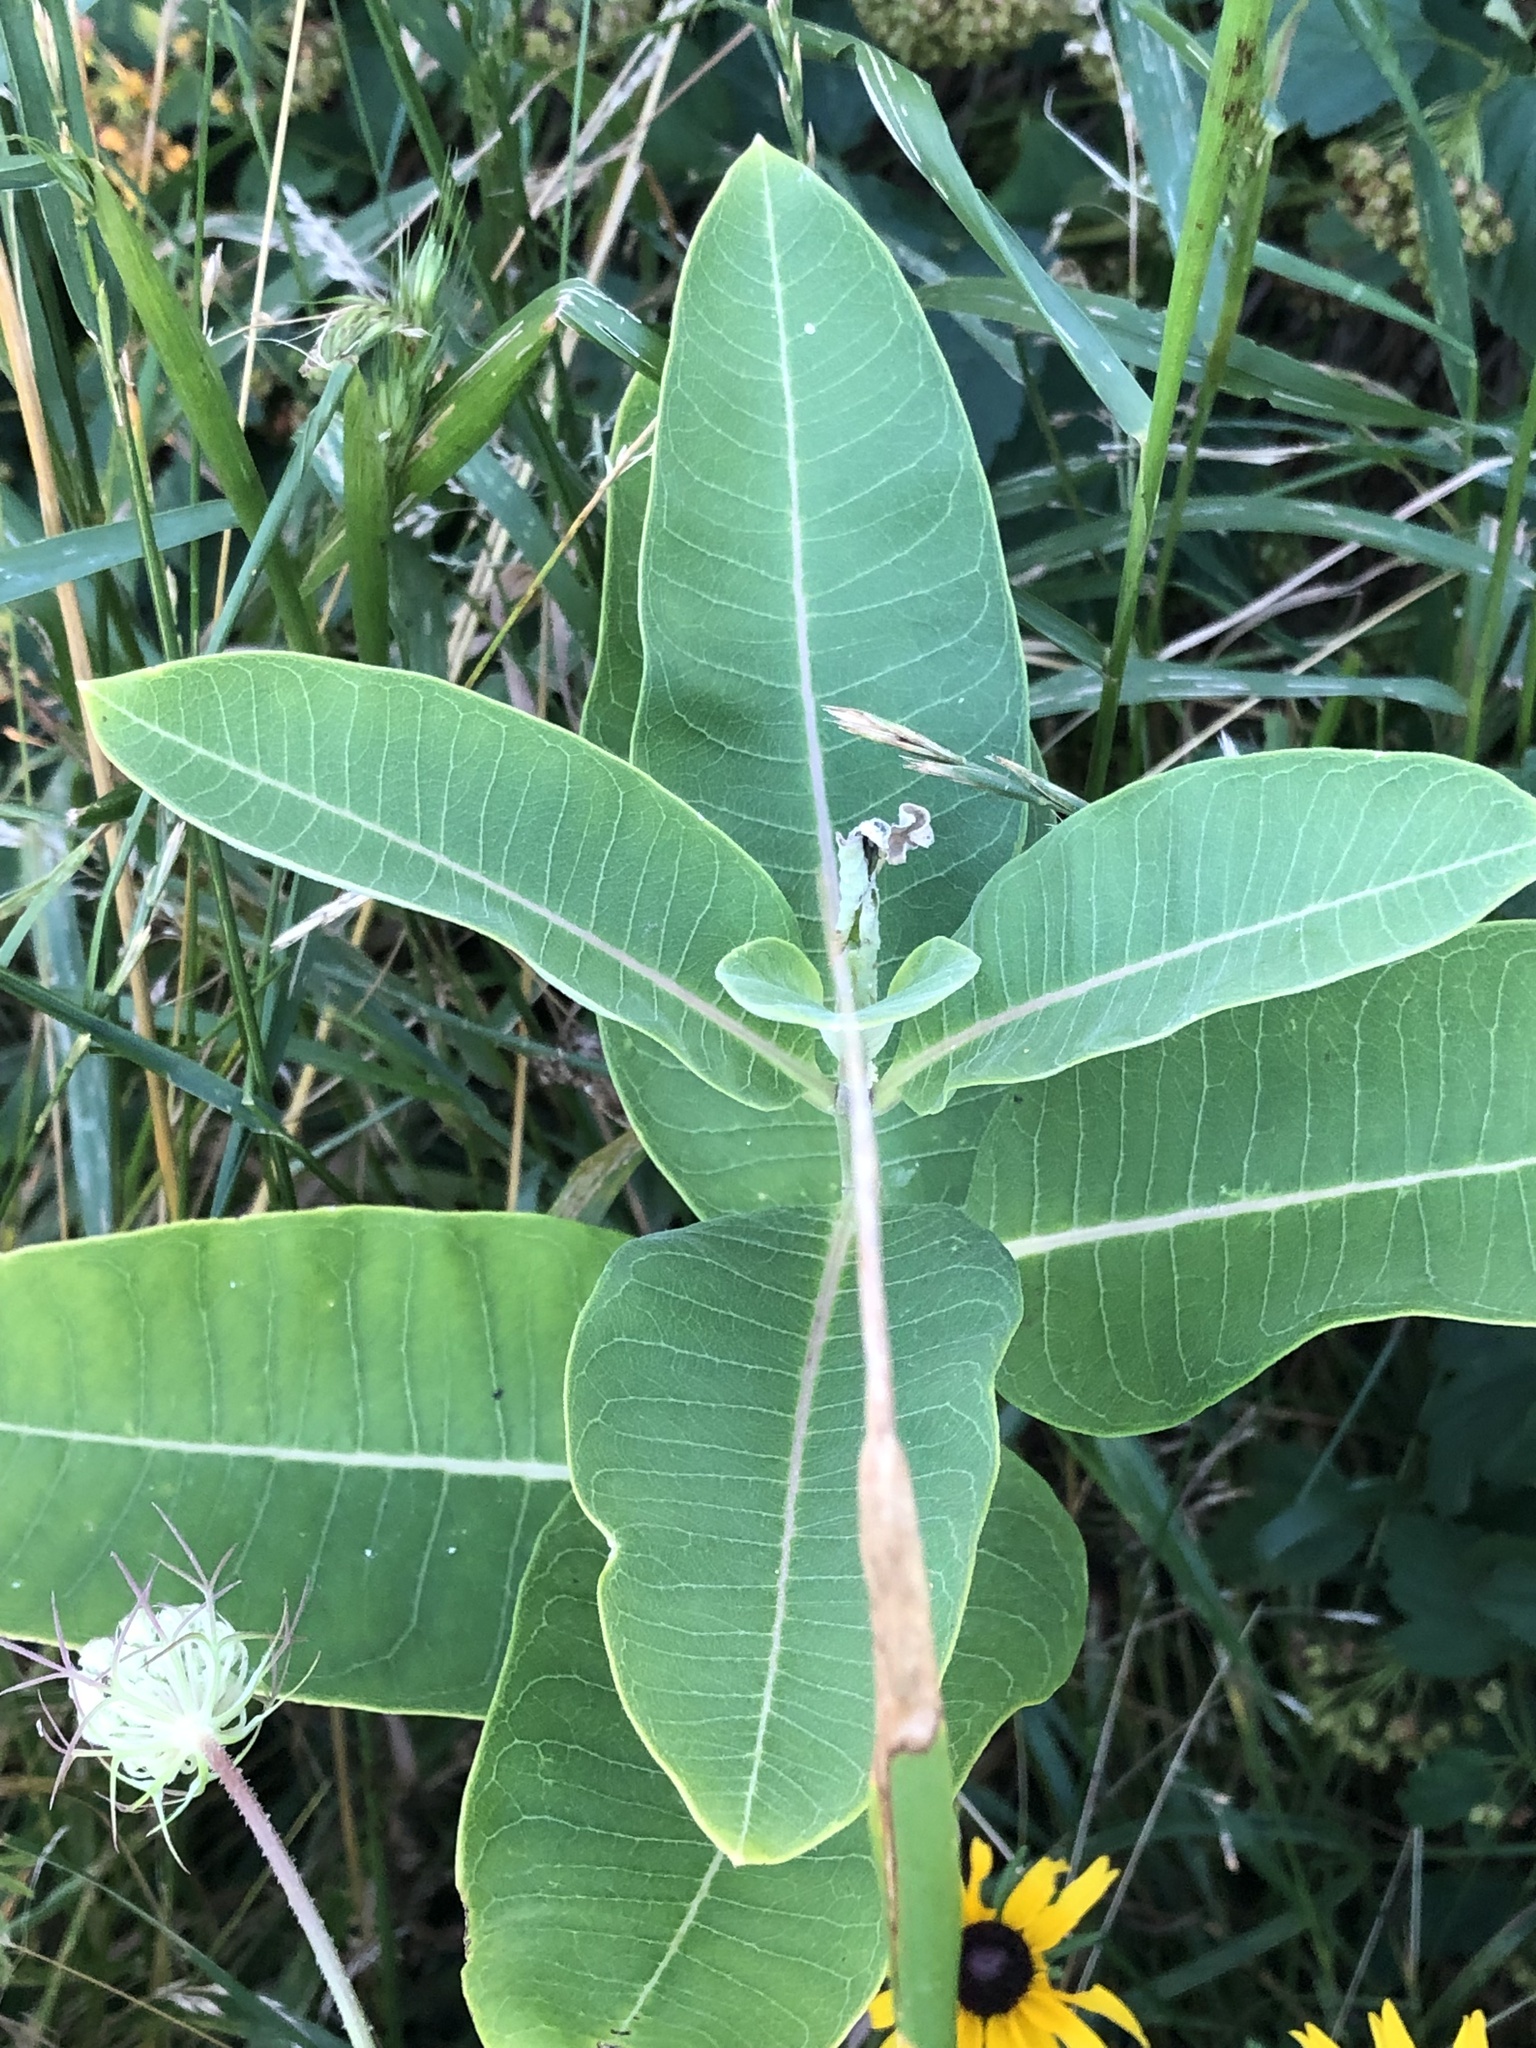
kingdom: Plantae
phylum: Tracheophyta
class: Magnoliopsida
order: Gentianales
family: Apocynaceae
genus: Asclepias
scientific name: Asclepias syriaca
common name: Common milkweed
